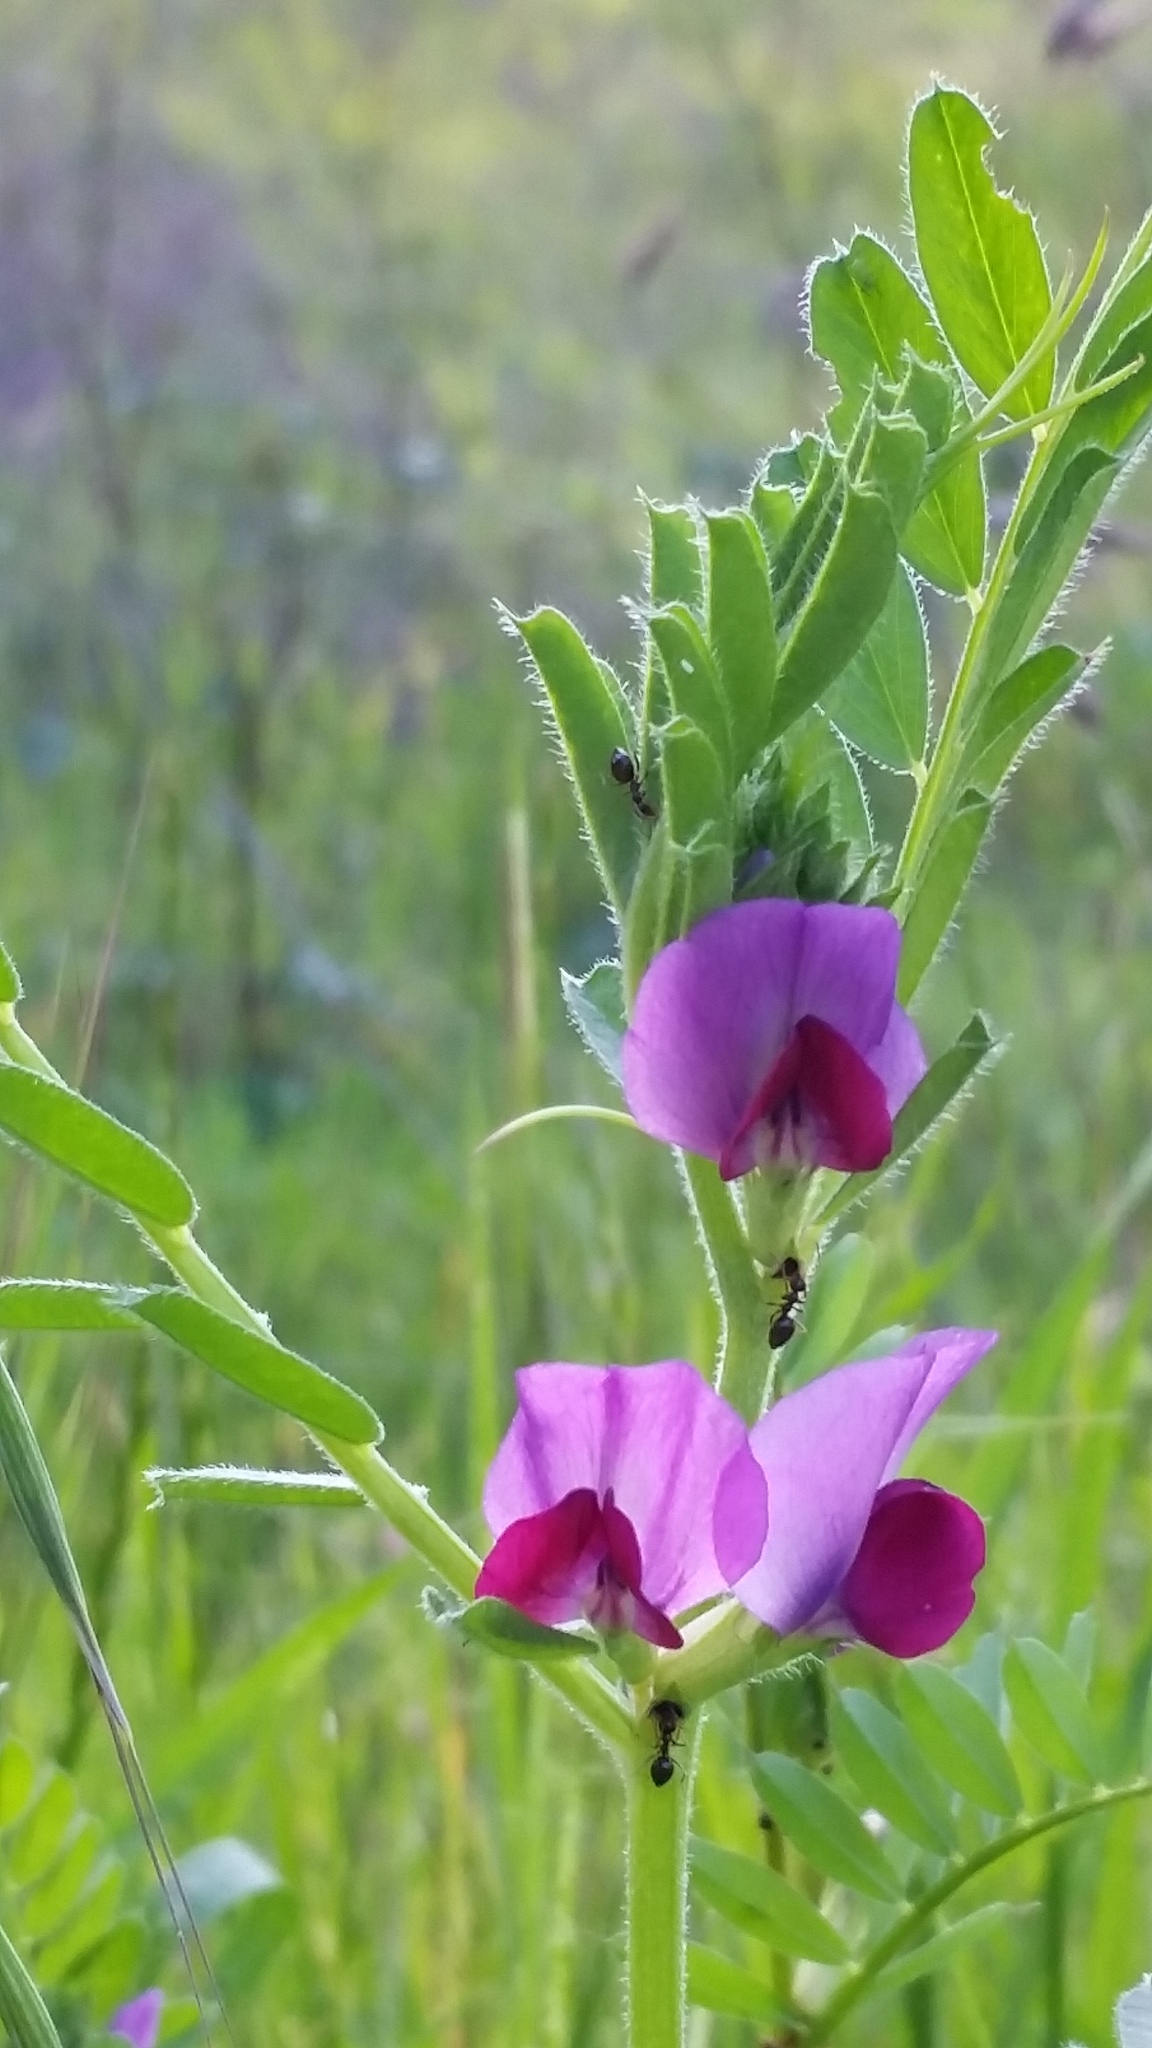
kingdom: Plantae
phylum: Tracheophyta
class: Magnoliopsida
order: Fabales
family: Fabaceae
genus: Vicia
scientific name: Vicia sativa
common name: Garden vetch
